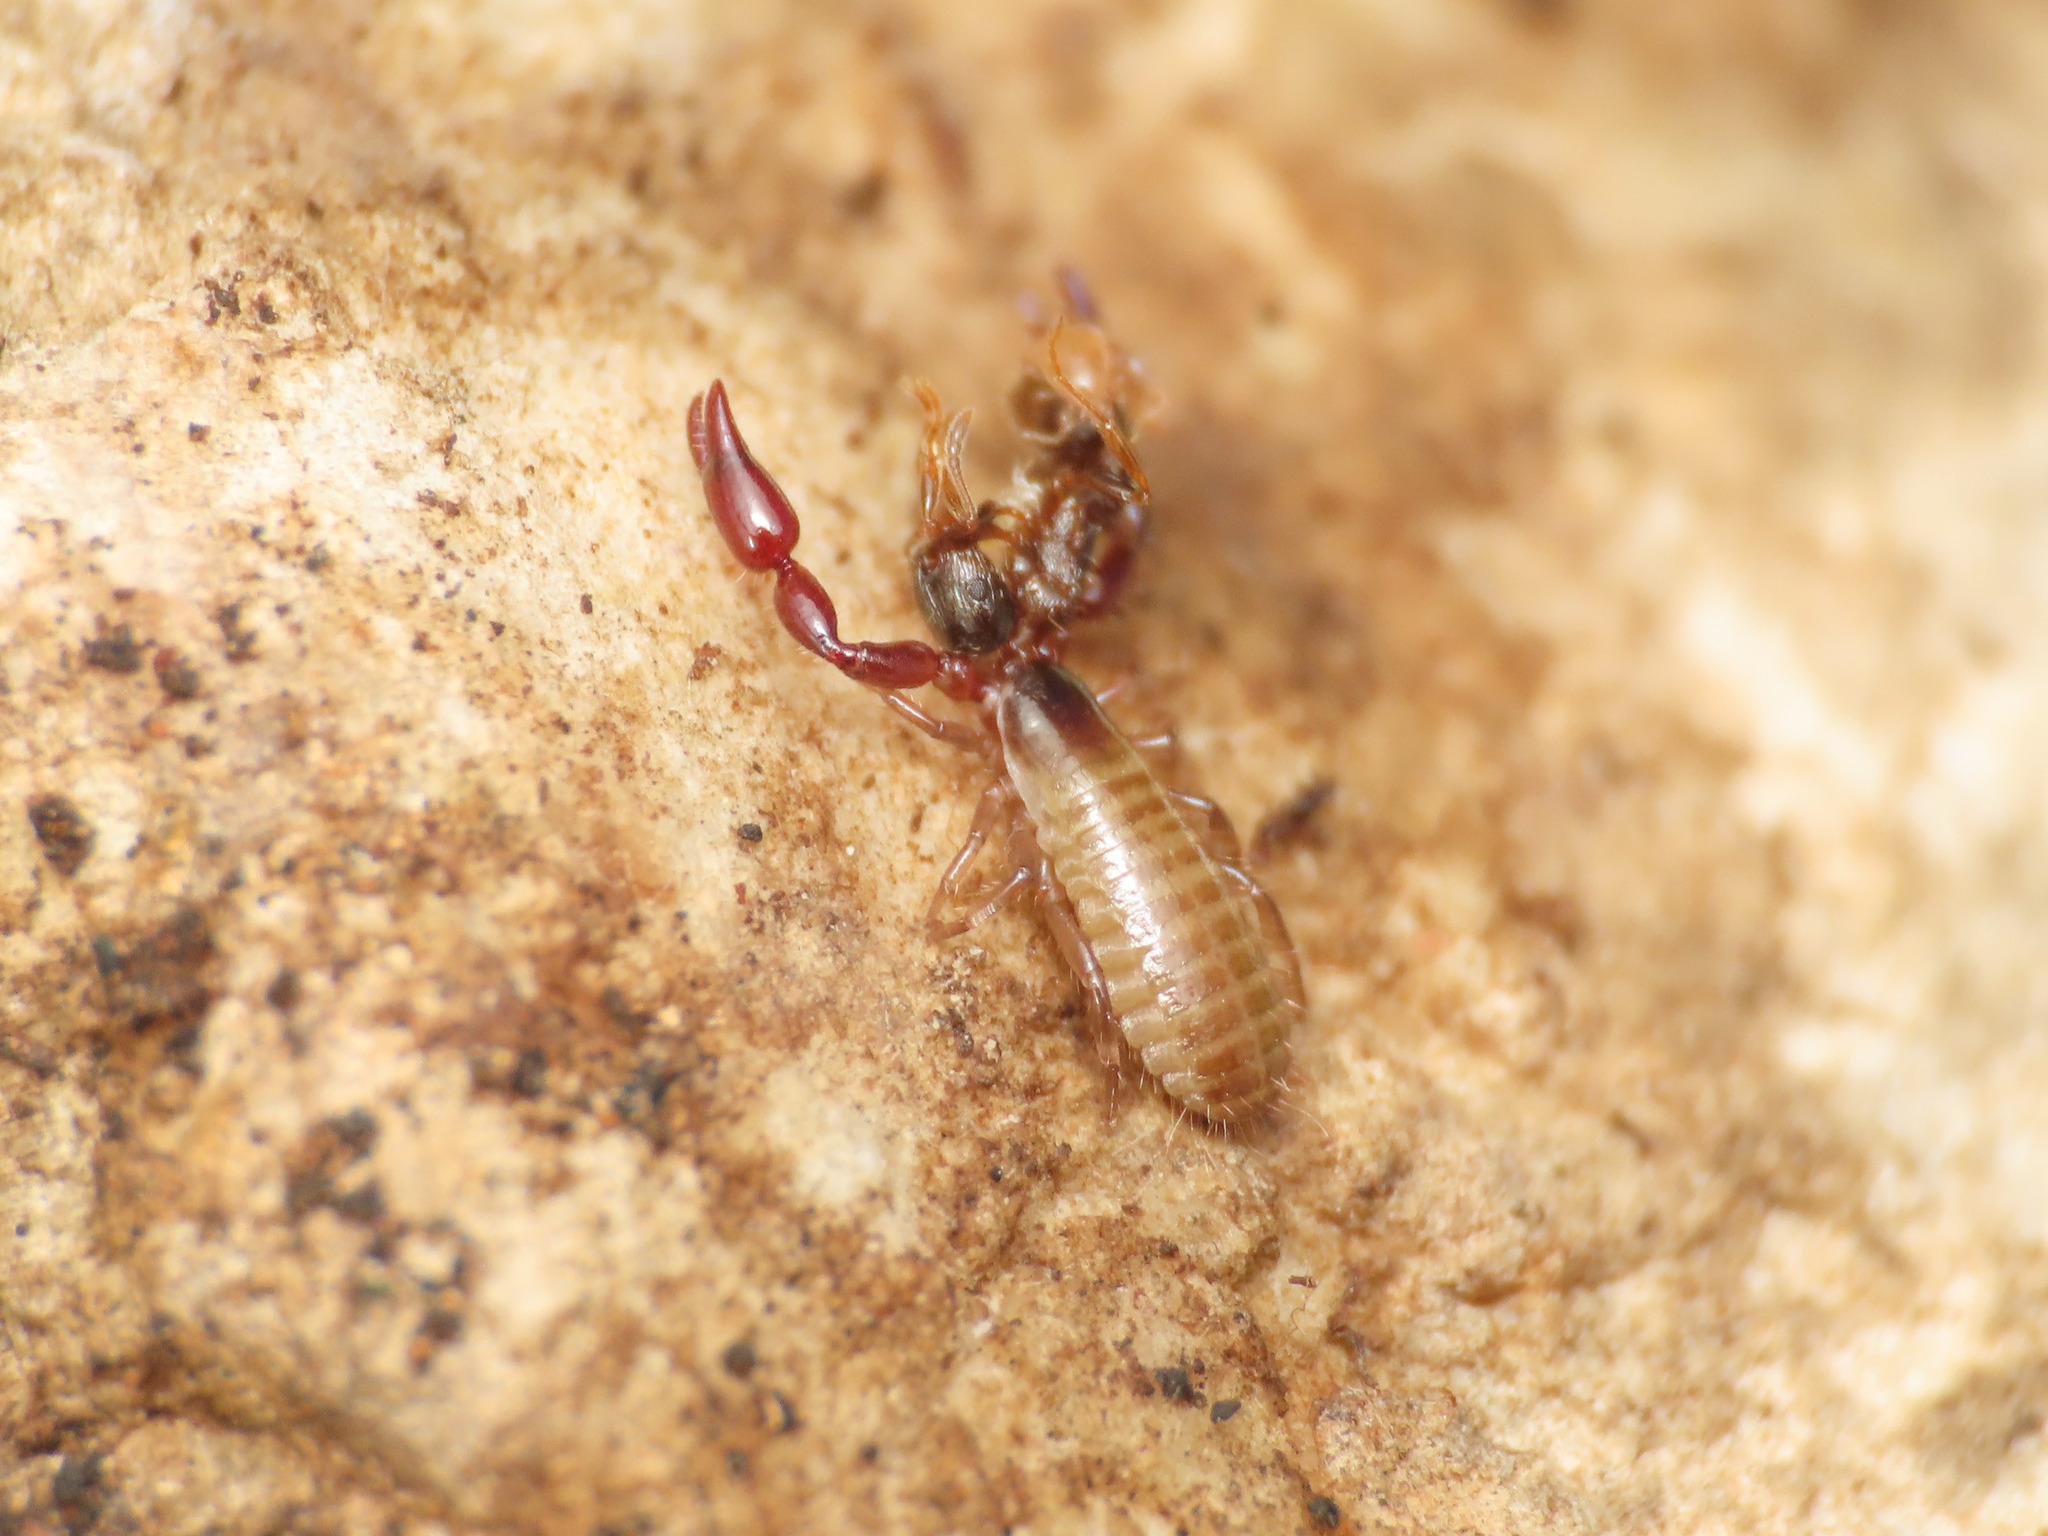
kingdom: Animalia
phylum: Arthropoda
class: Arachnida
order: Pseudoscorpiones
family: Atemnidae
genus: Atemnus
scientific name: Atemnus politus
